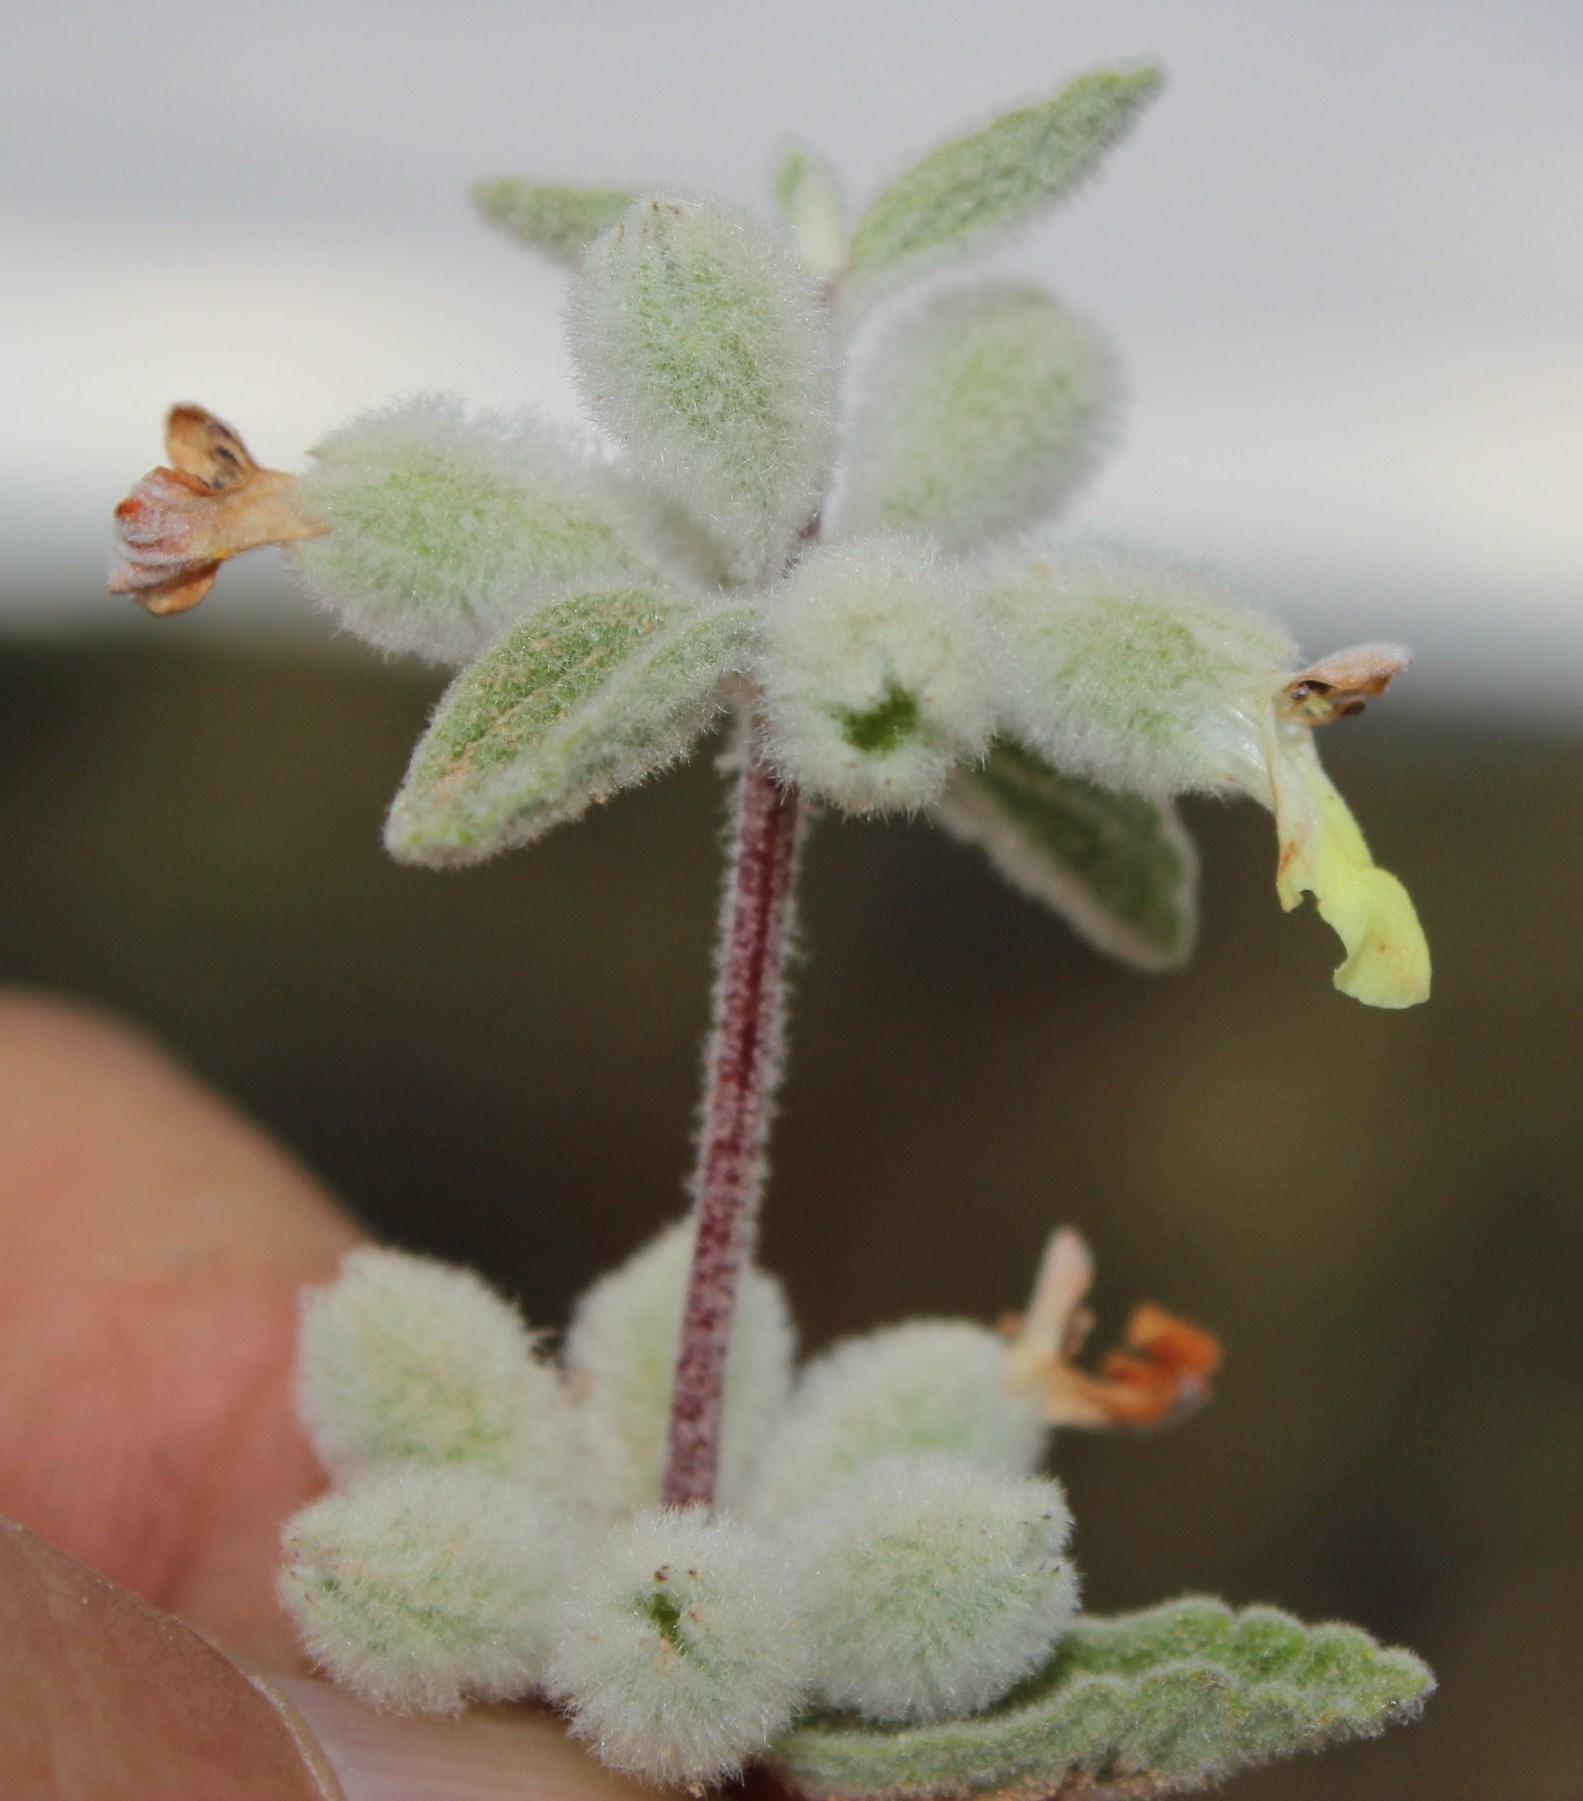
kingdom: Plantae
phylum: Tracheophyta
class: Magnoliopsida
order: Lamiales
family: Lamiaceae
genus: Stachys
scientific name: Stachys lamarckii
